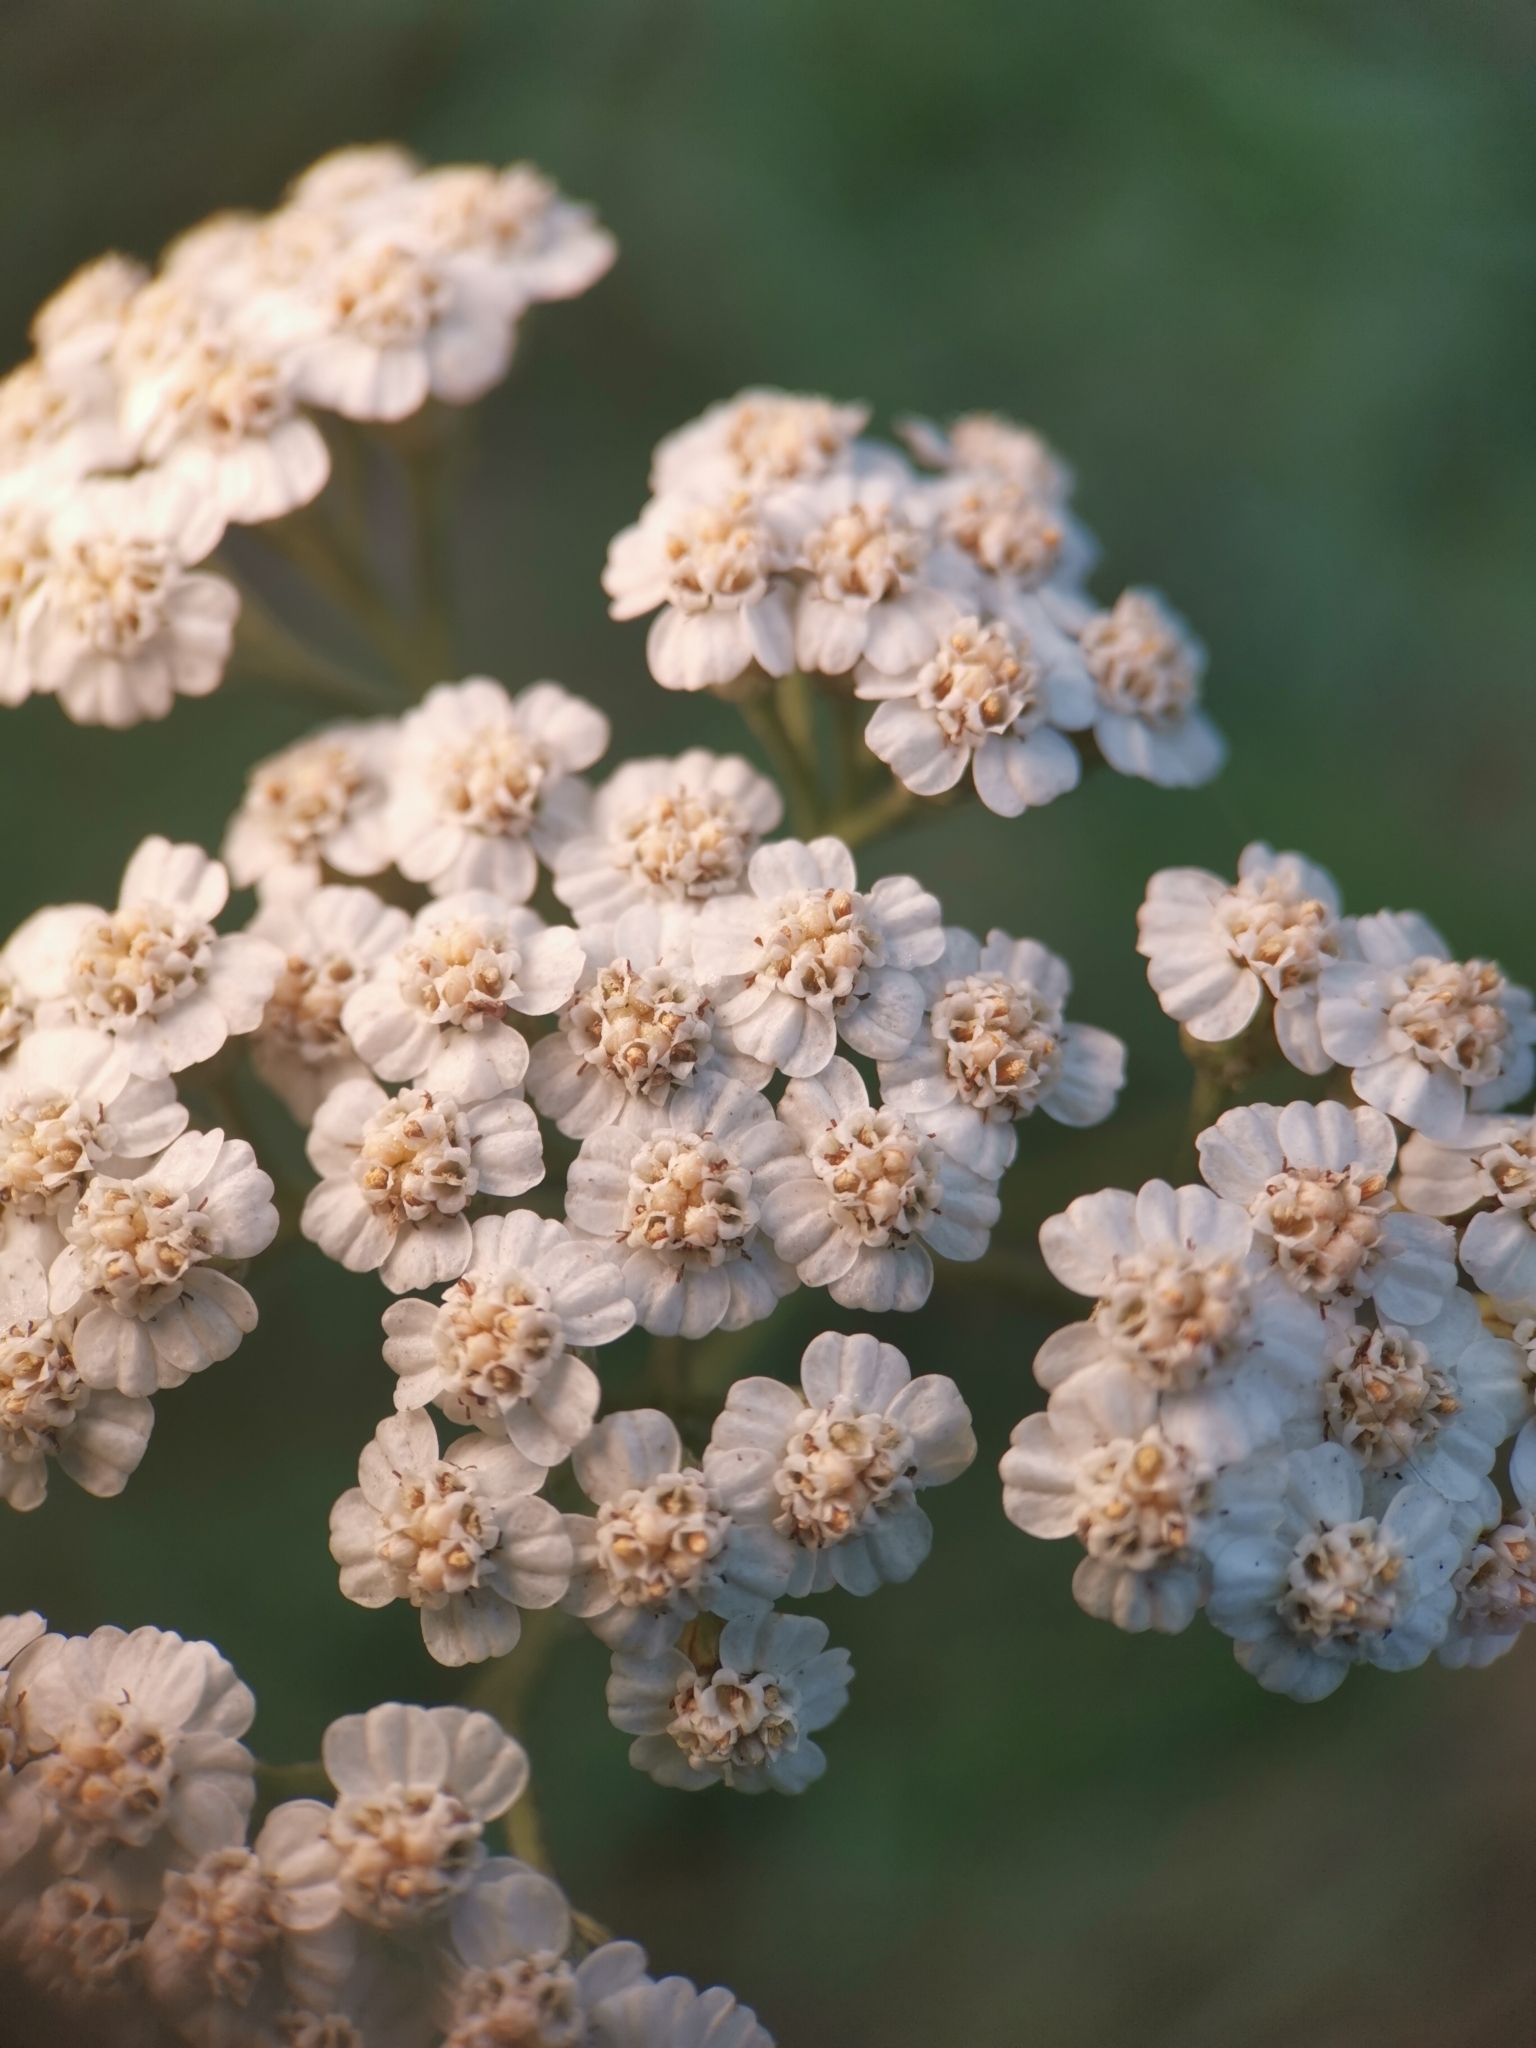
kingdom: Plantae
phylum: Tracheophyta
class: Magnoliopsida
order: Asterales
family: Asteraceae
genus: Achillea
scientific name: Achillea millefolium
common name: Yarrow
